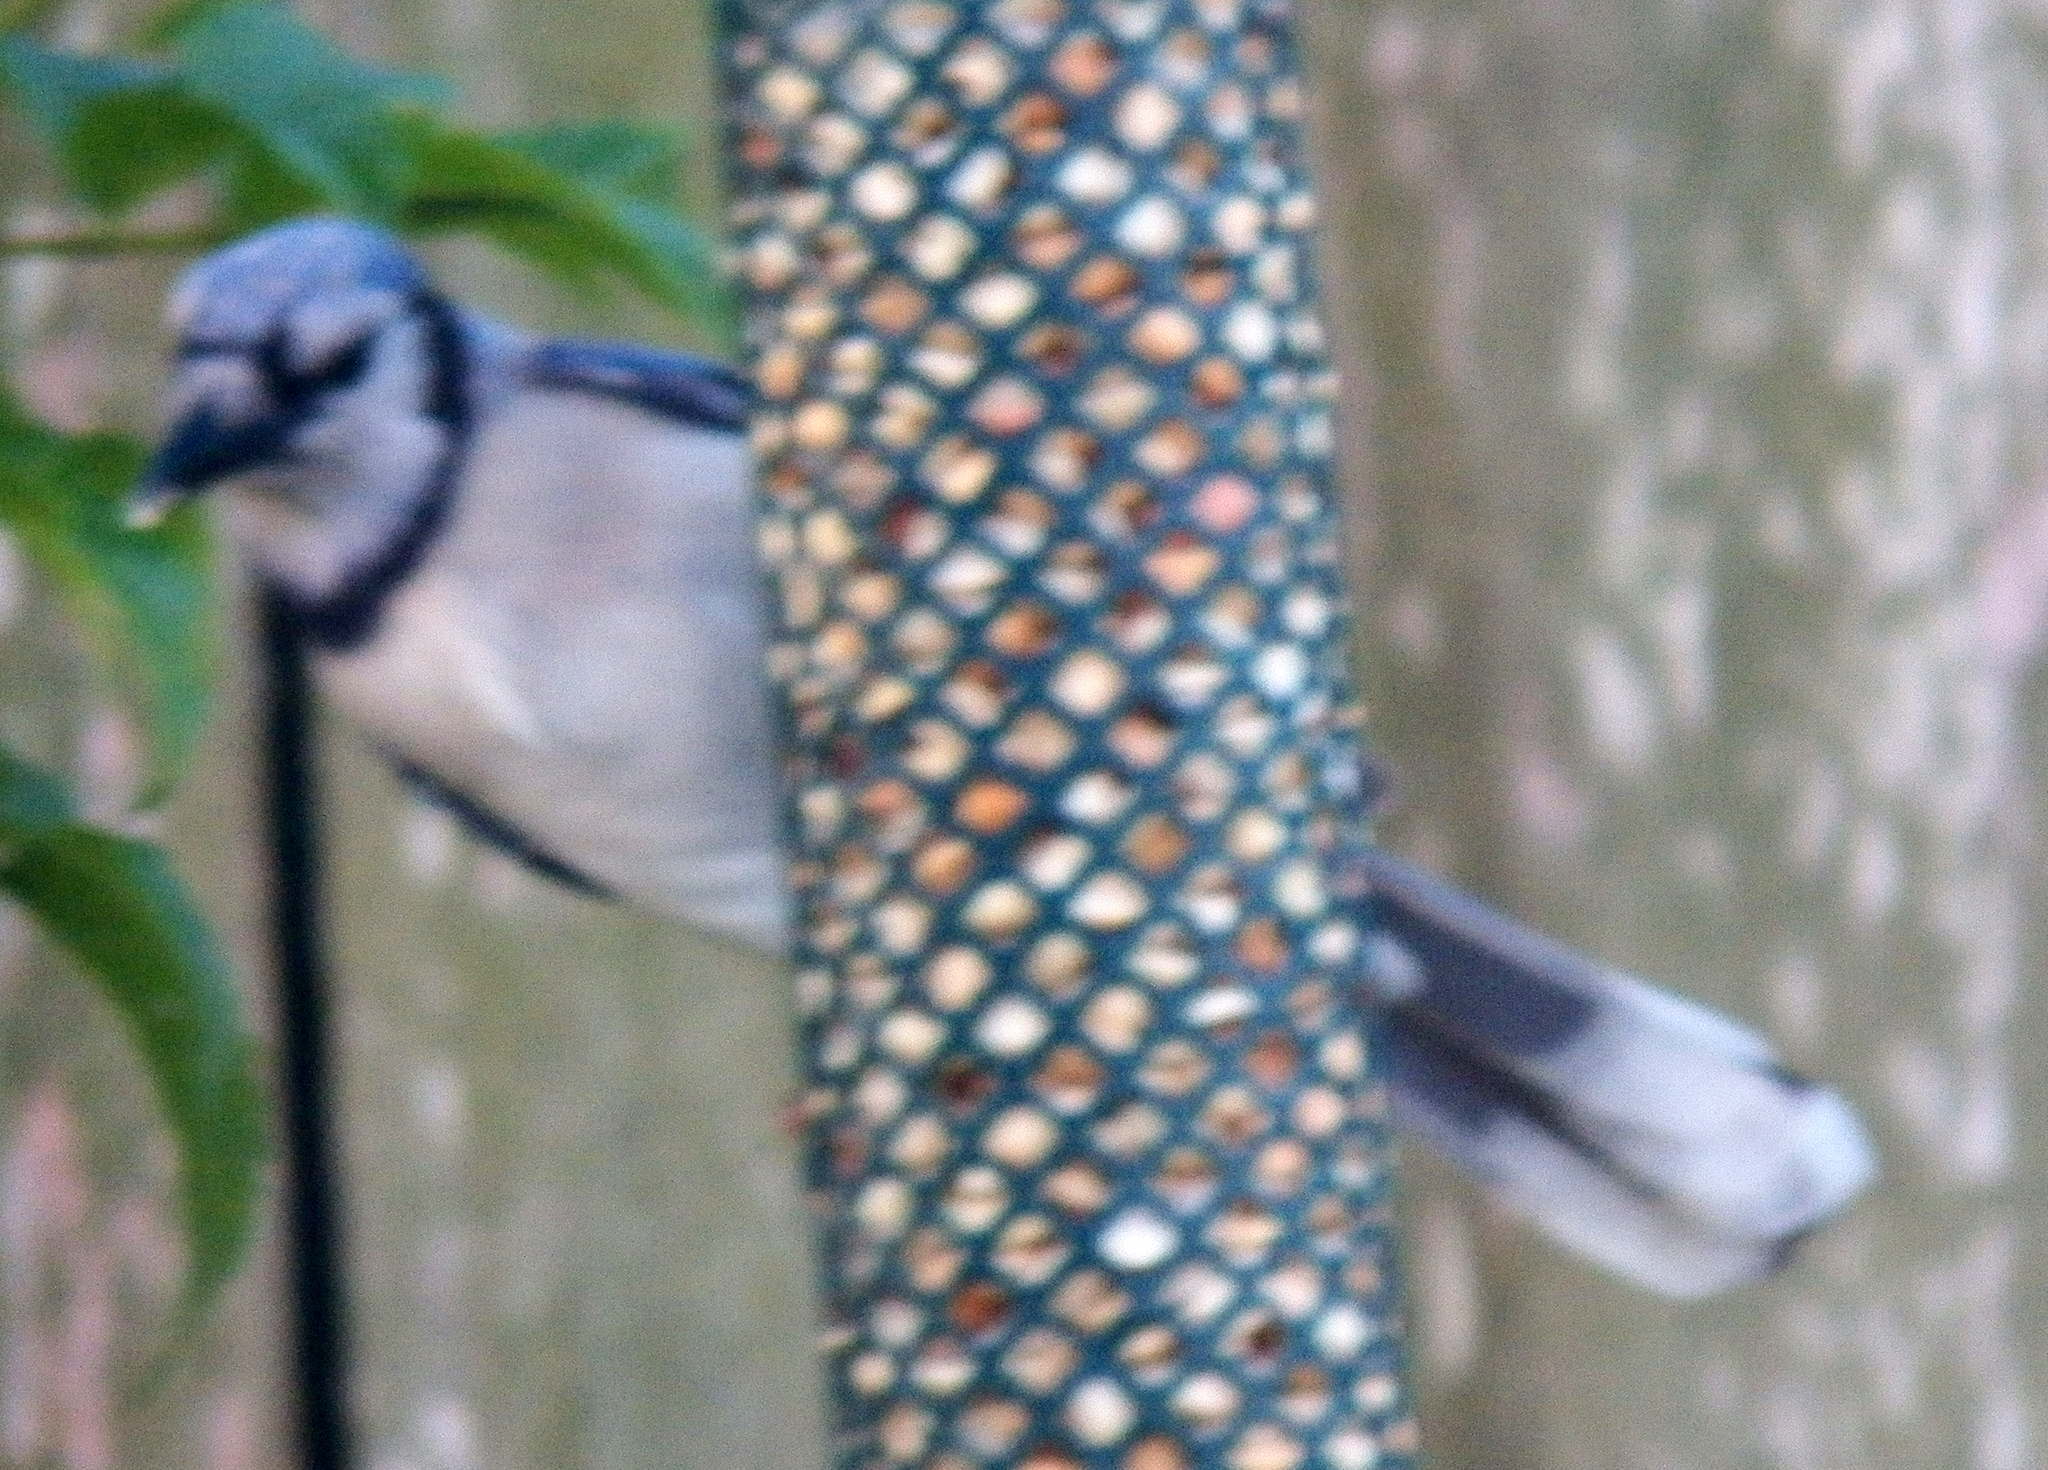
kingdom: Animalia
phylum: Chordata
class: Aves
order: Passeriformes
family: Corvidae
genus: Cyanocitta
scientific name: Cyanocitta cristata
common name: Blue jay
